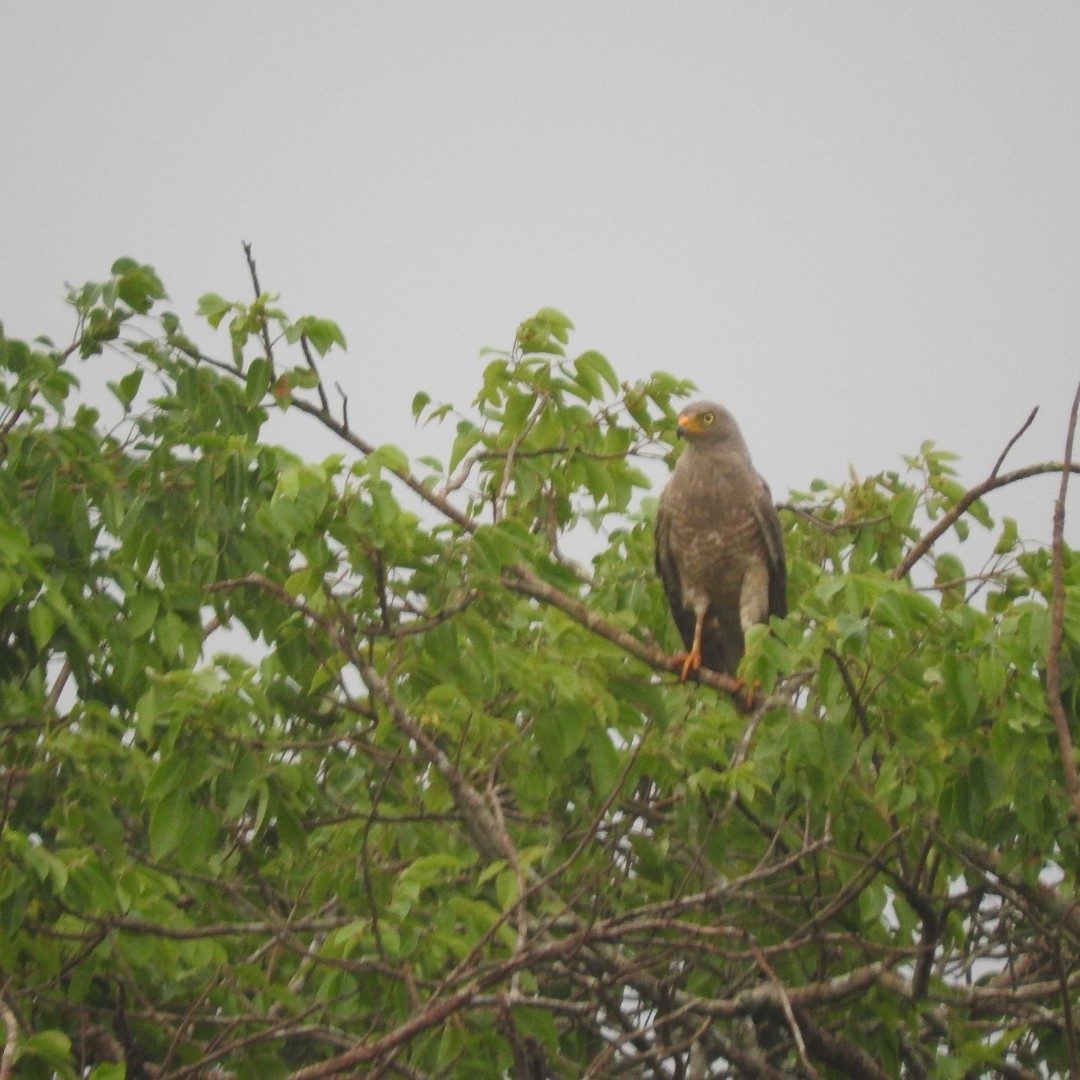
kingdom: Animalia
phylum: Chordata
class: Aves
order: Accipitriformes
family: Accipitridae
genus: Rupornis
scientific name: Rupornis magnirostris
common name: Roadside hawk
